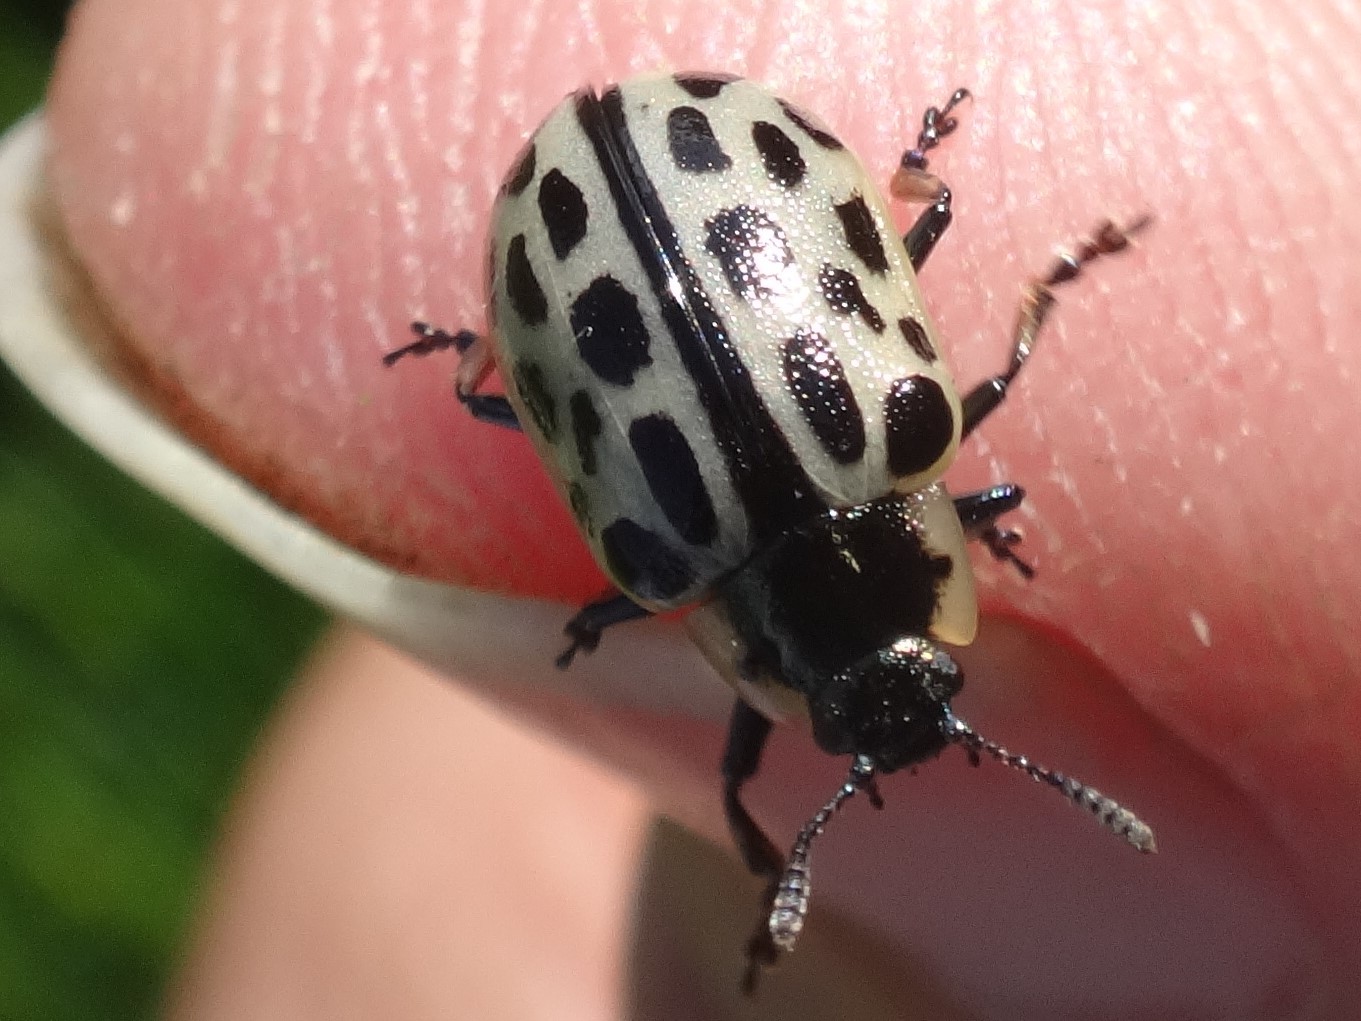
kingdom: Animalia
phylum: Arthropoda
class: Insecta
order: Coleoptera
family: Chrysomelidae
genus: Chrysomela
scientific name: Chrysomela vigintipunctata
